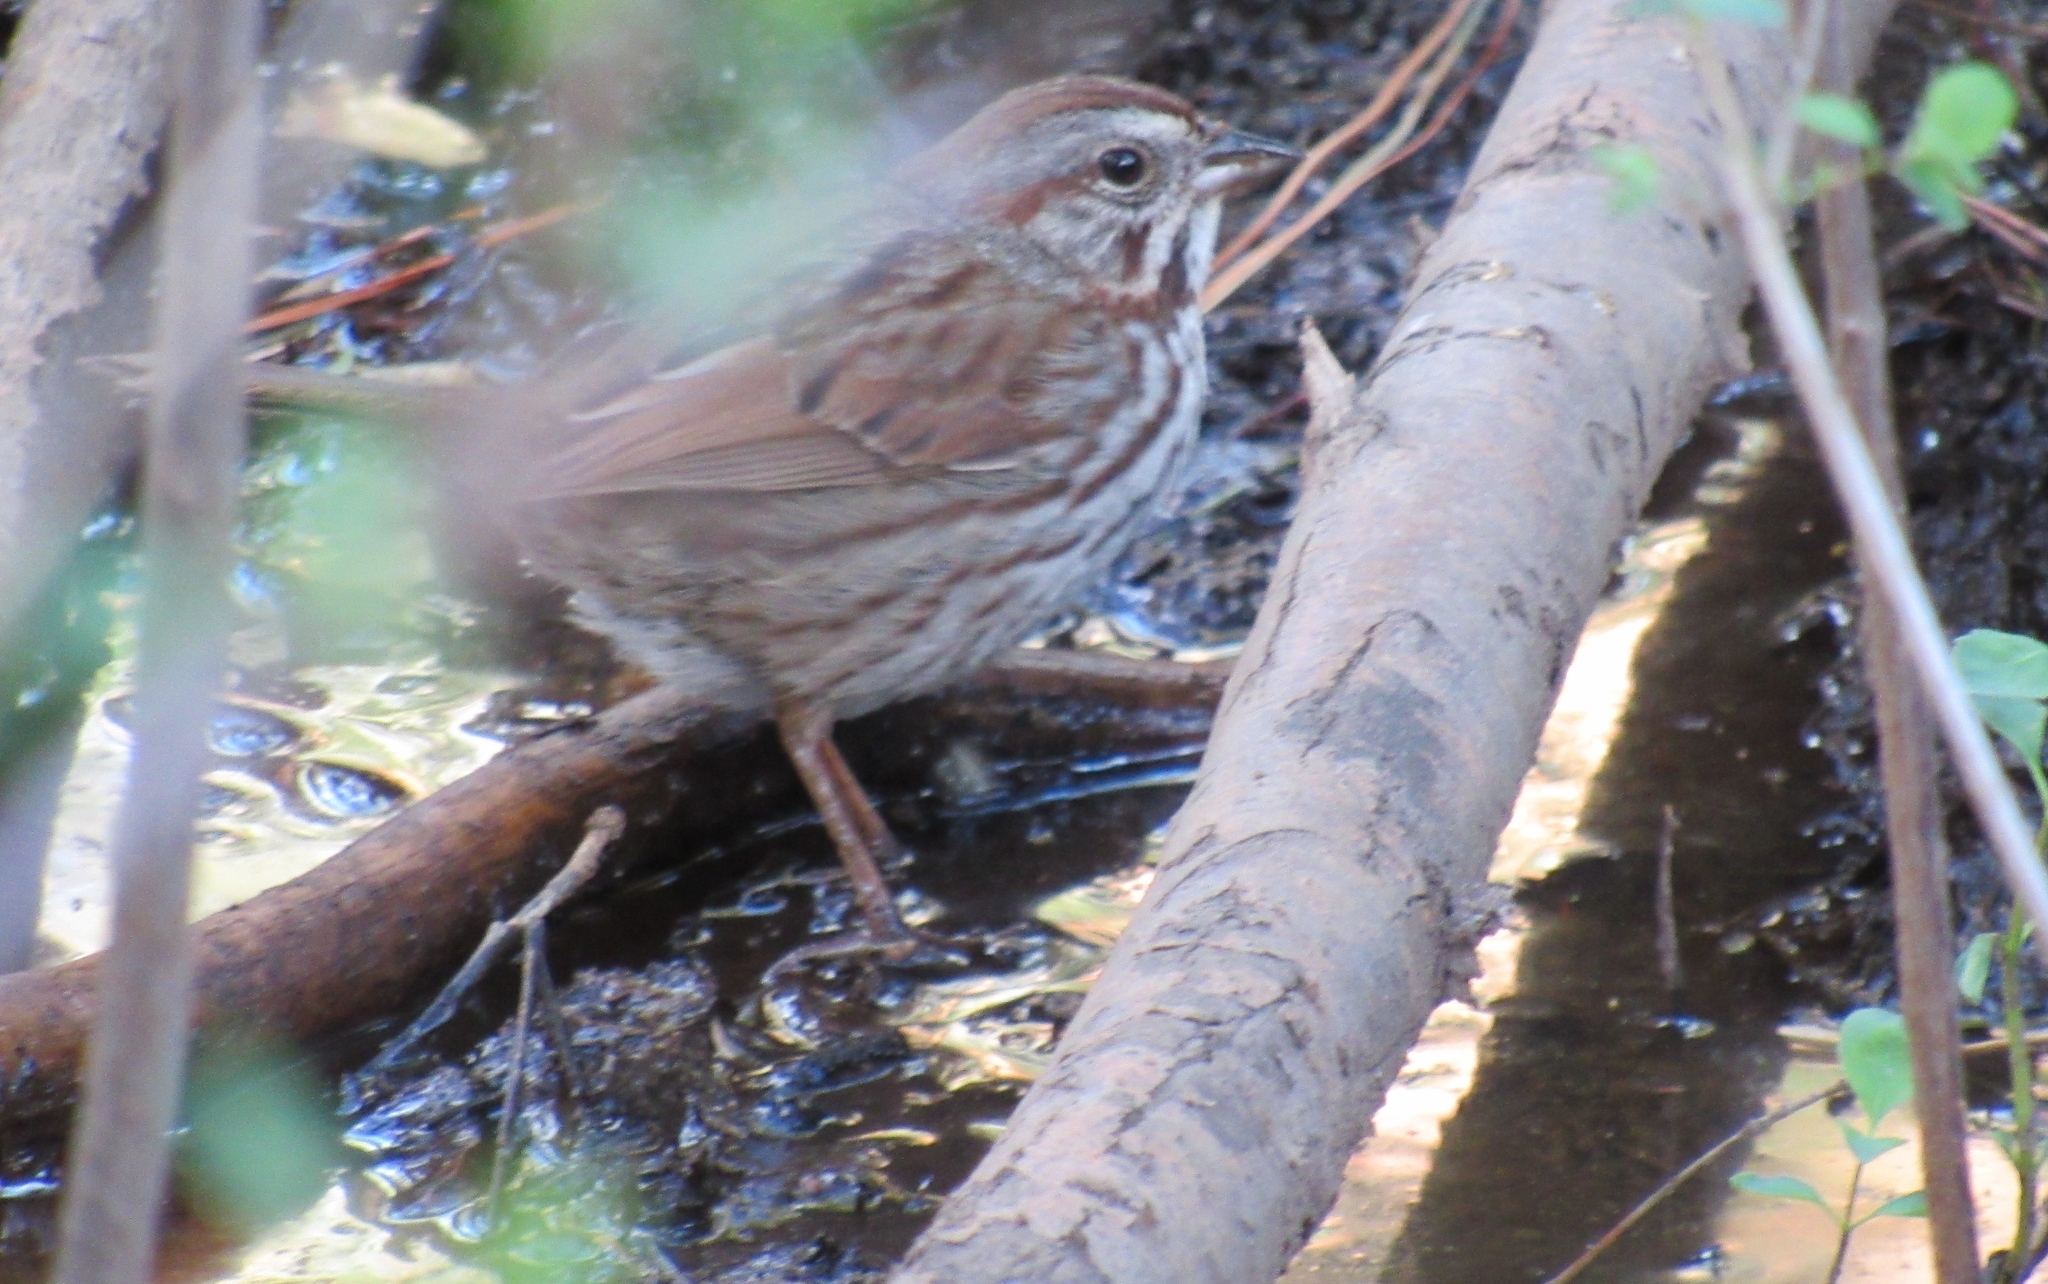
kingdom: Animalia
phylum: Chordata
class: Aves
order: Passeriformes
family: Passerellidae
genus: Melospiza
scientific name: Melospiza melodia
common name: Song sparrow
